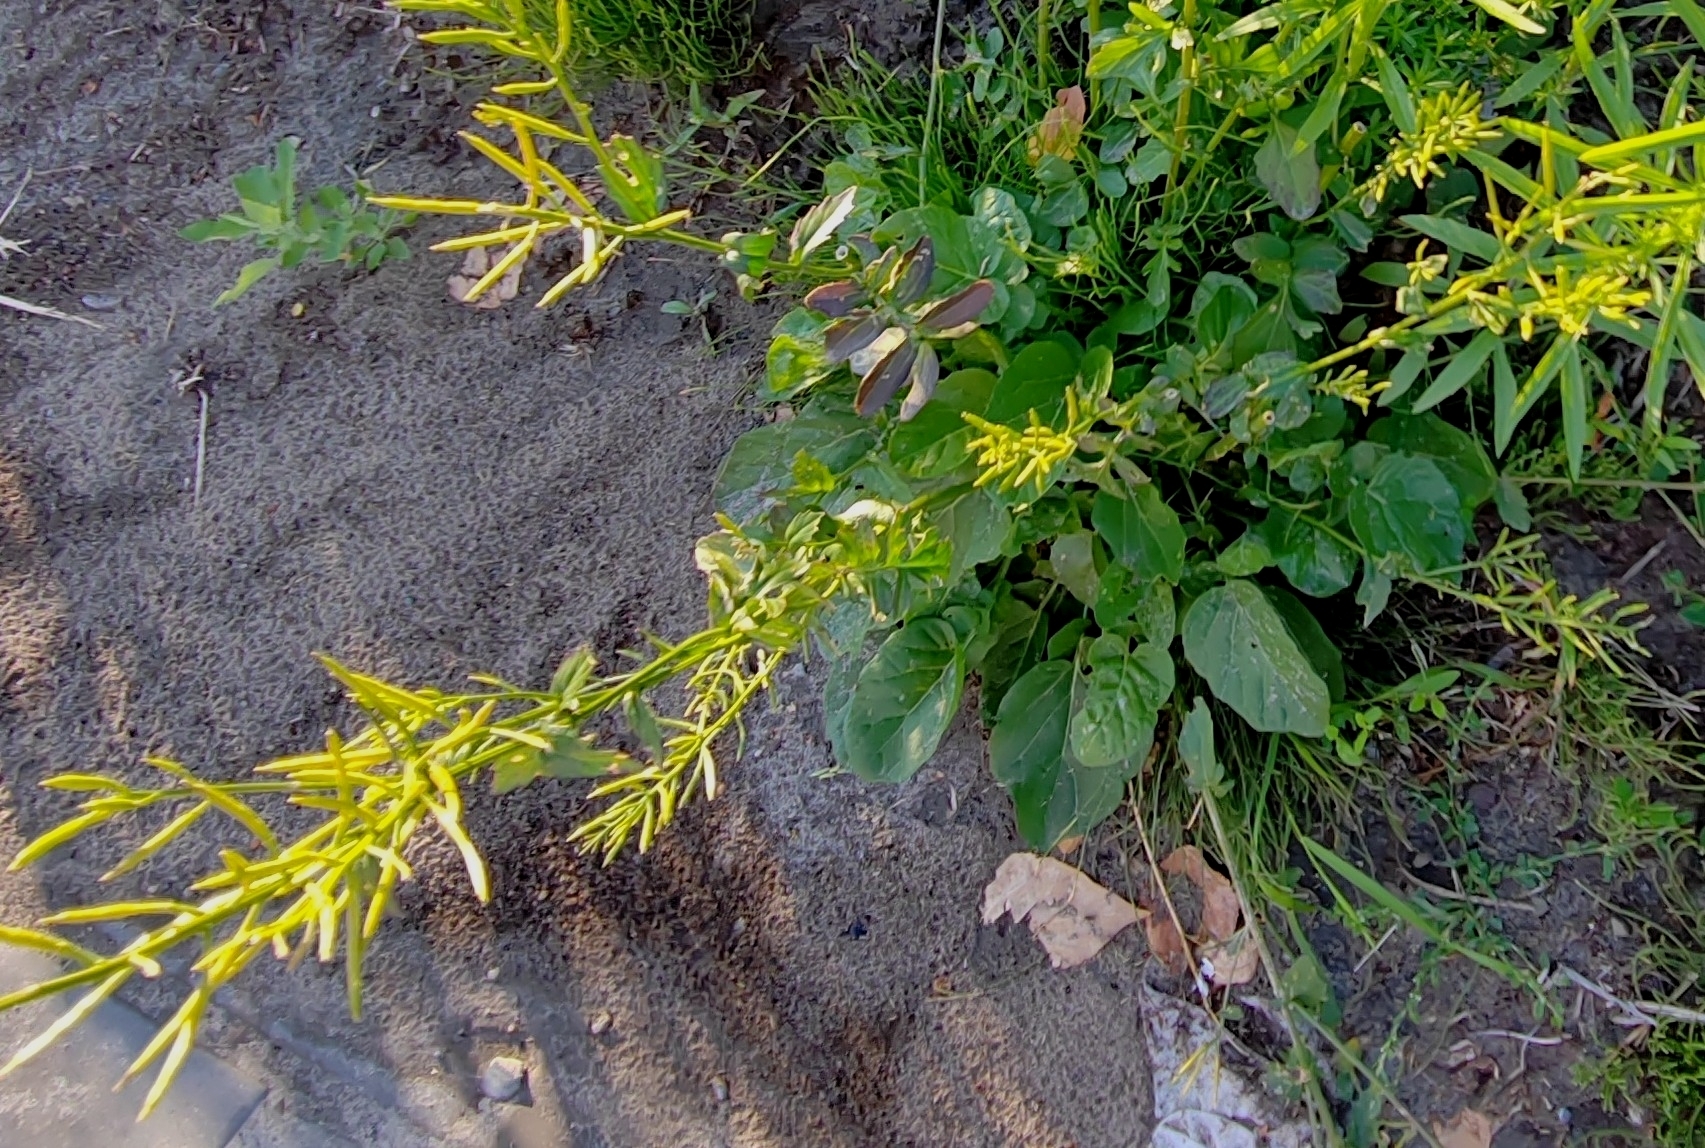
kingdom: Plantae
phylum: Tracheophyta
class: Magnoliopsida
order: Brassicales
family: Brassicaceae
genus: Barbarea
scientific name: Barbarea vulgaris
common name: Cressy-greens
